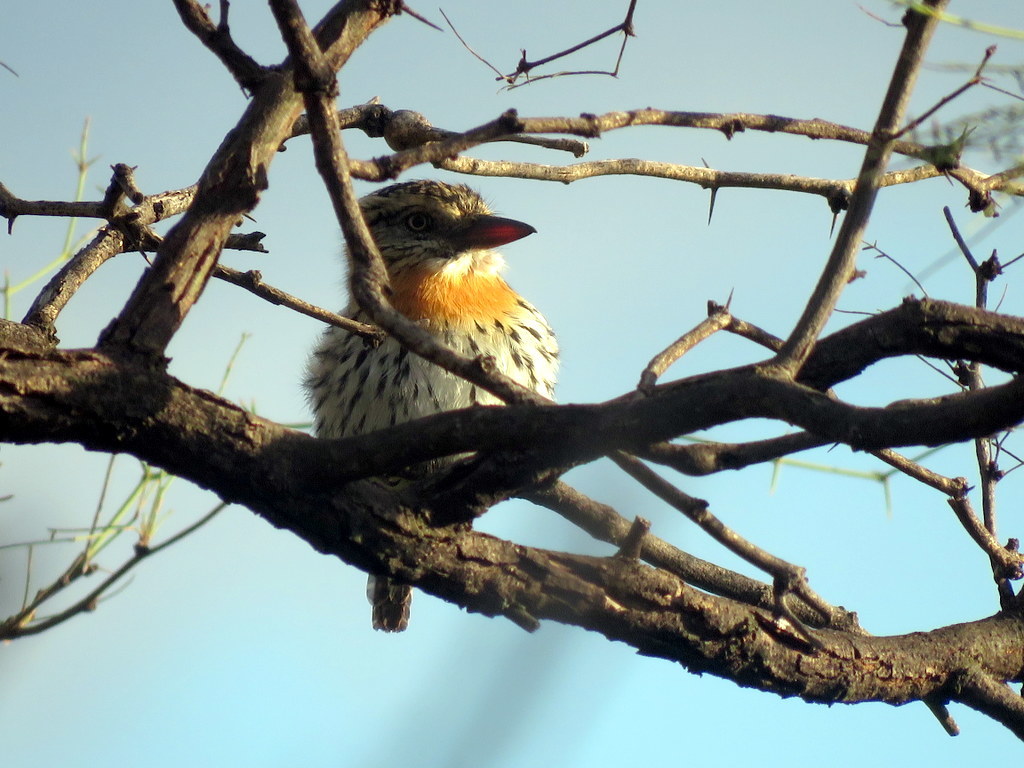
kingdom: Animalia
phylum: Chordata
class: Aves
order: Piciformes
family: Bucconidae
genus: Nystalus
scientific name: Nystalus maculatus
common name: Caatinga puffbird
